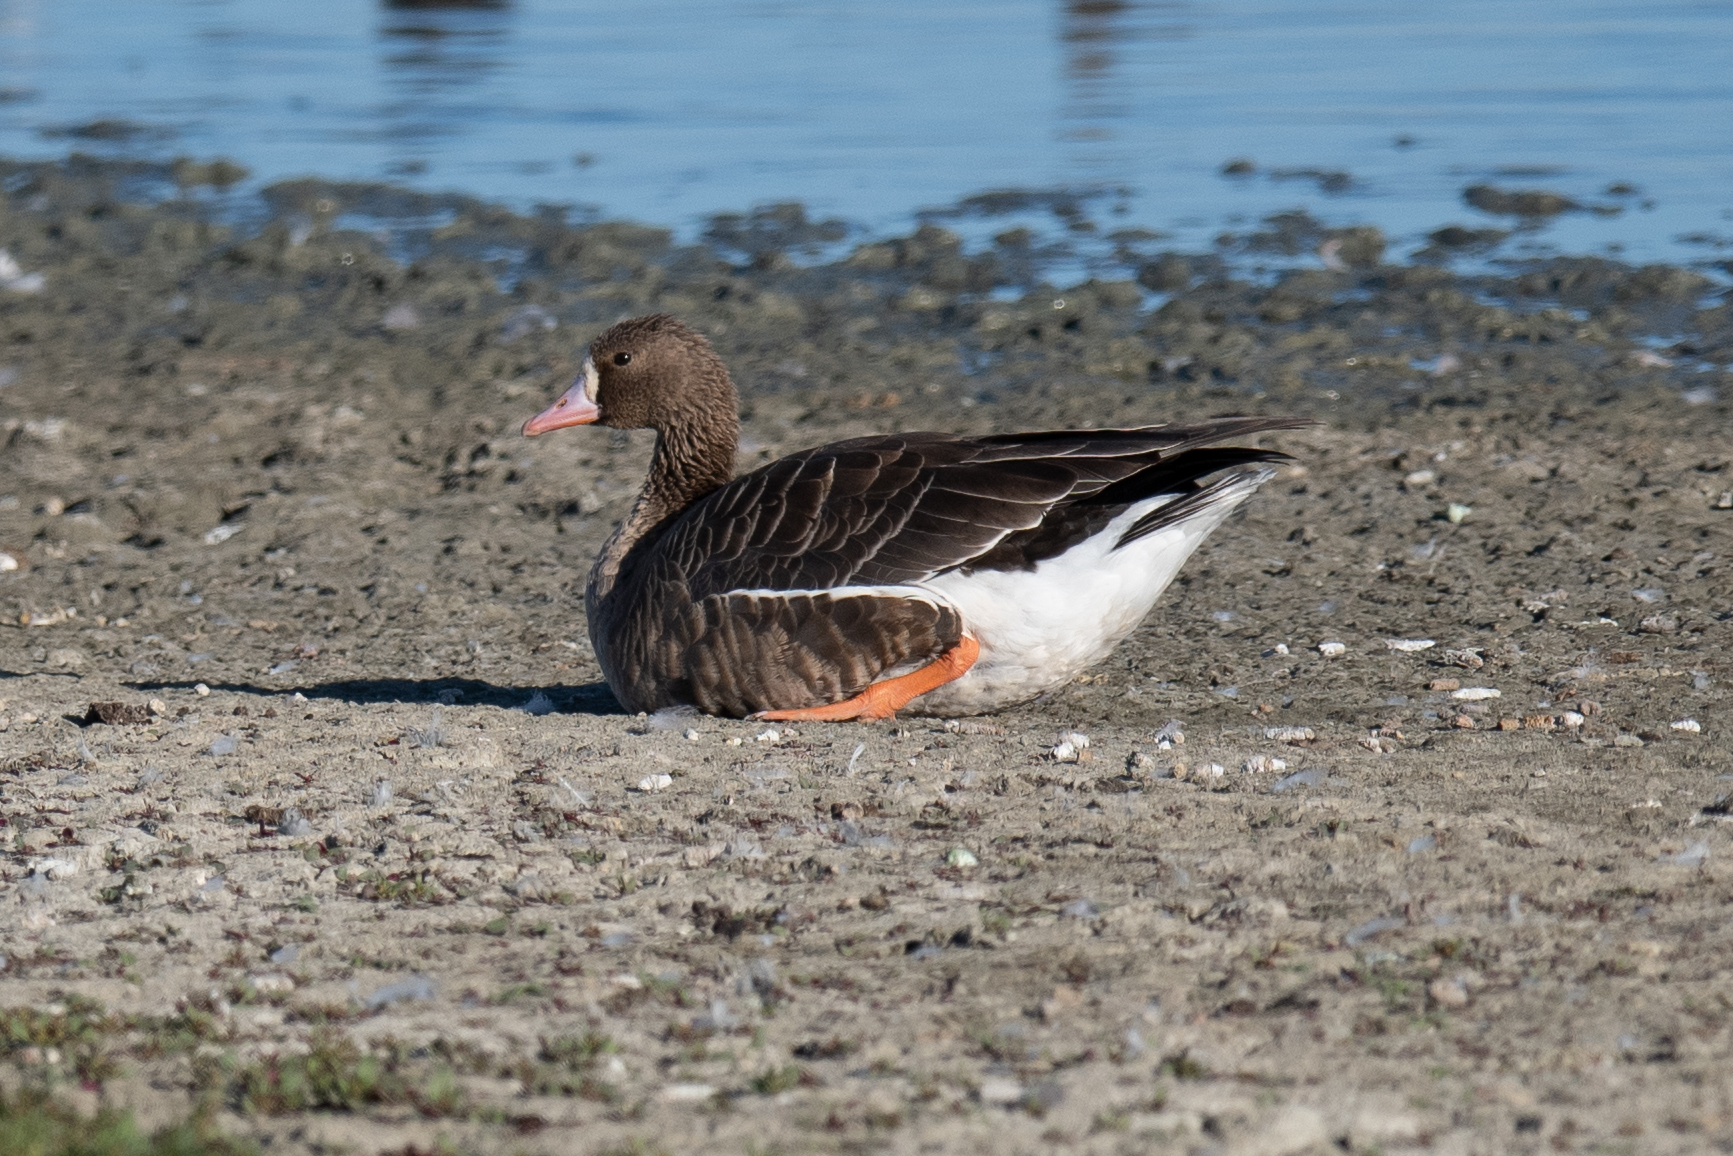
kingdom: Animalia
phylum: Chordata
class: Aves
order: Anseriformes
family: Anatidae
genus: Anser
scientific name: Anser albifrons
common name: Greater white-fronted goose
